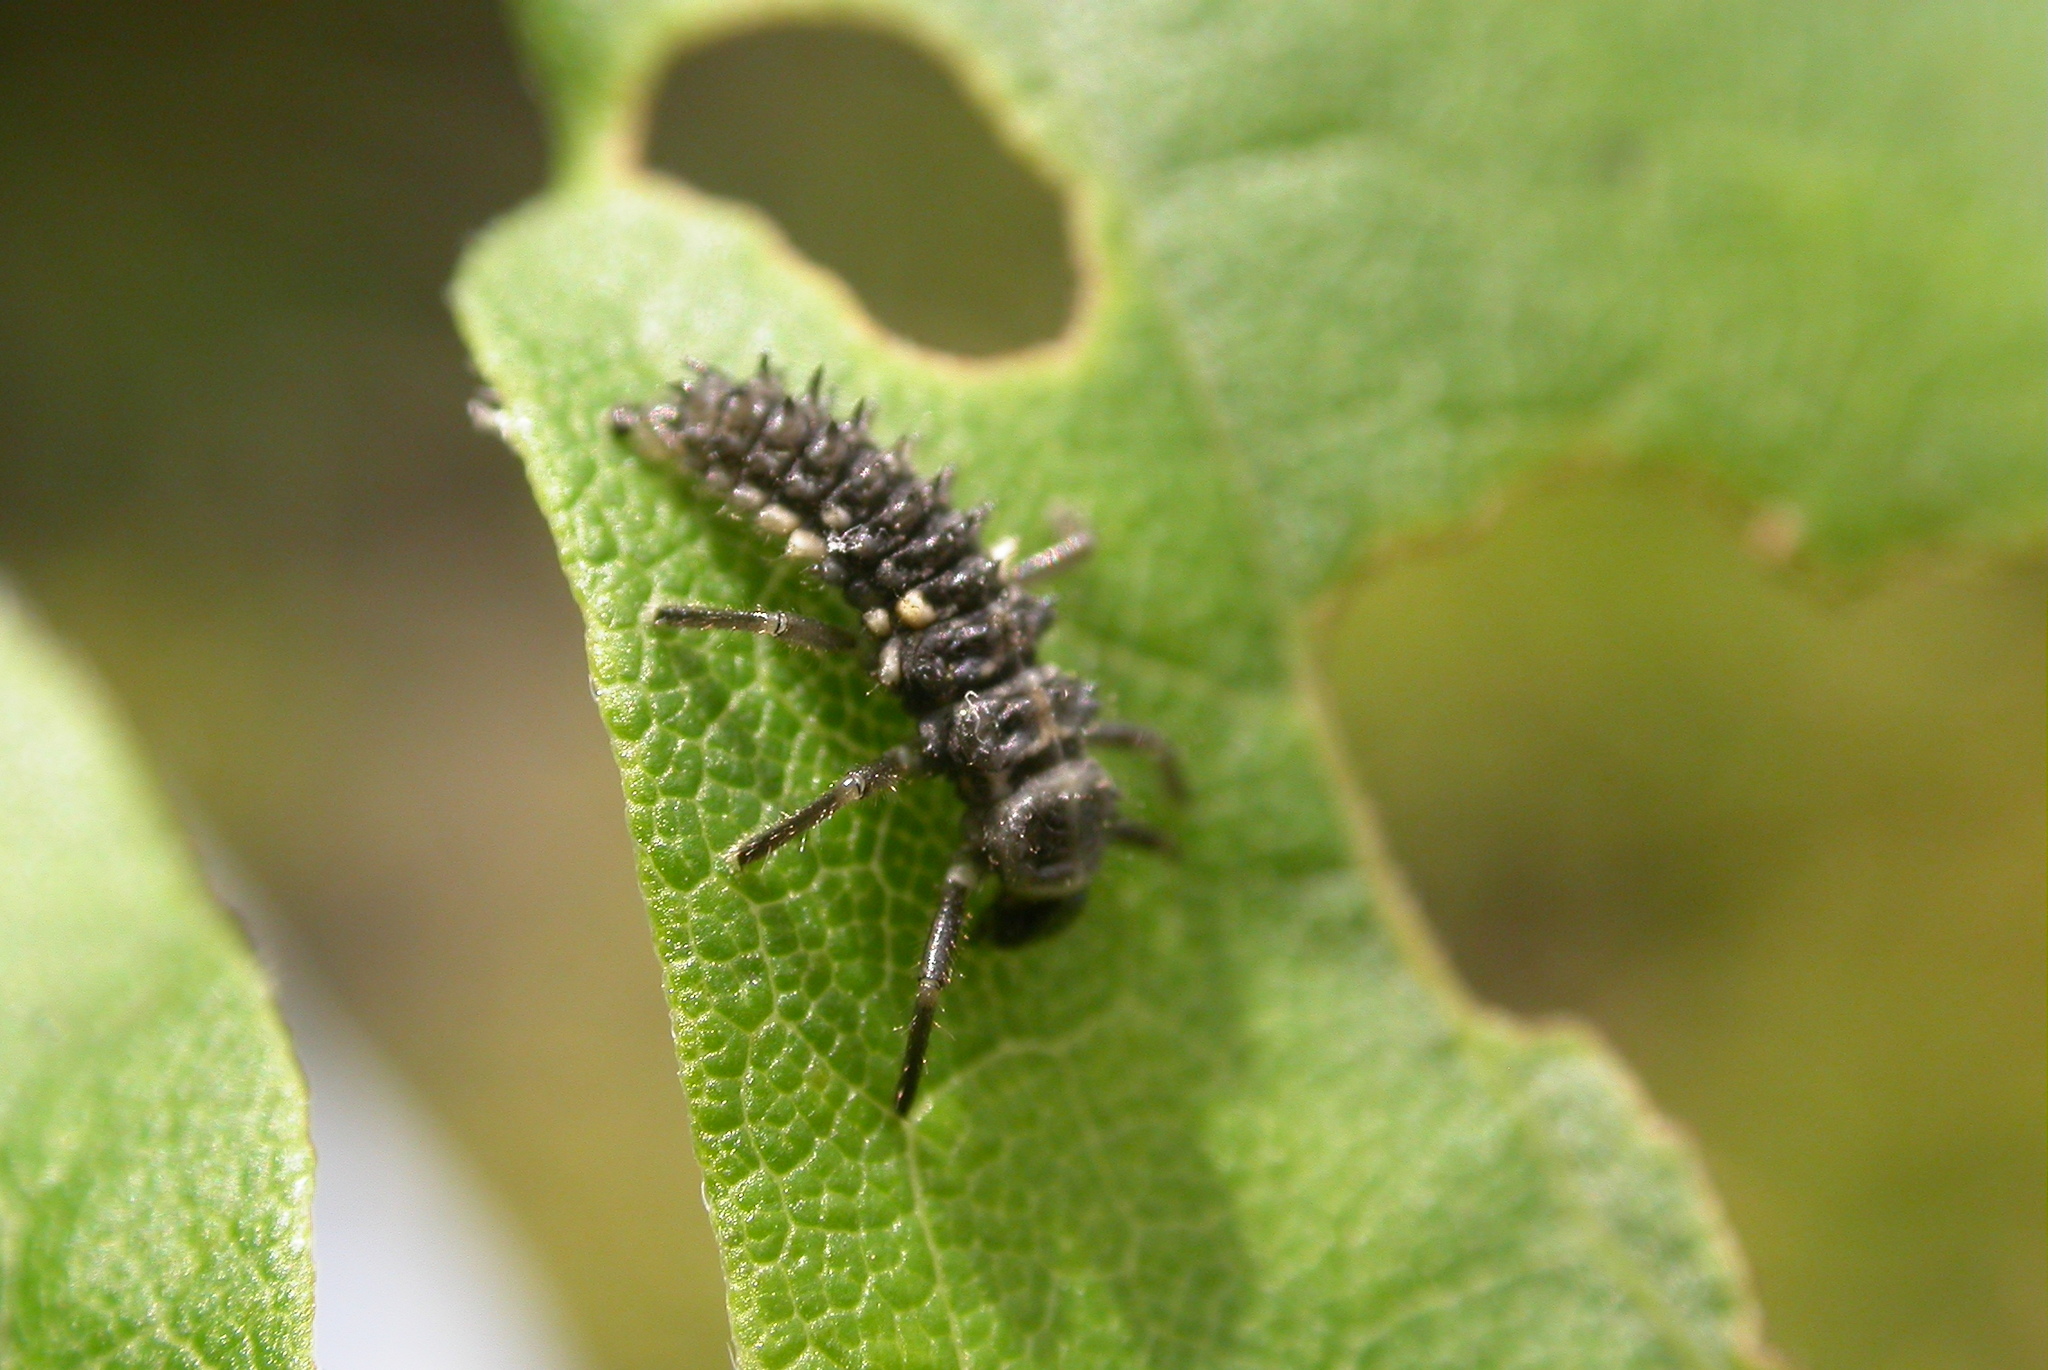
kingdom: Animalia
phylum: Arthropoda
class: Insecta
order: Coleoptera
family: Coccinellidae
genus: Calvia
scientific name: Calvia quatuordecimguttata
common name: Cream-spot ladybird
